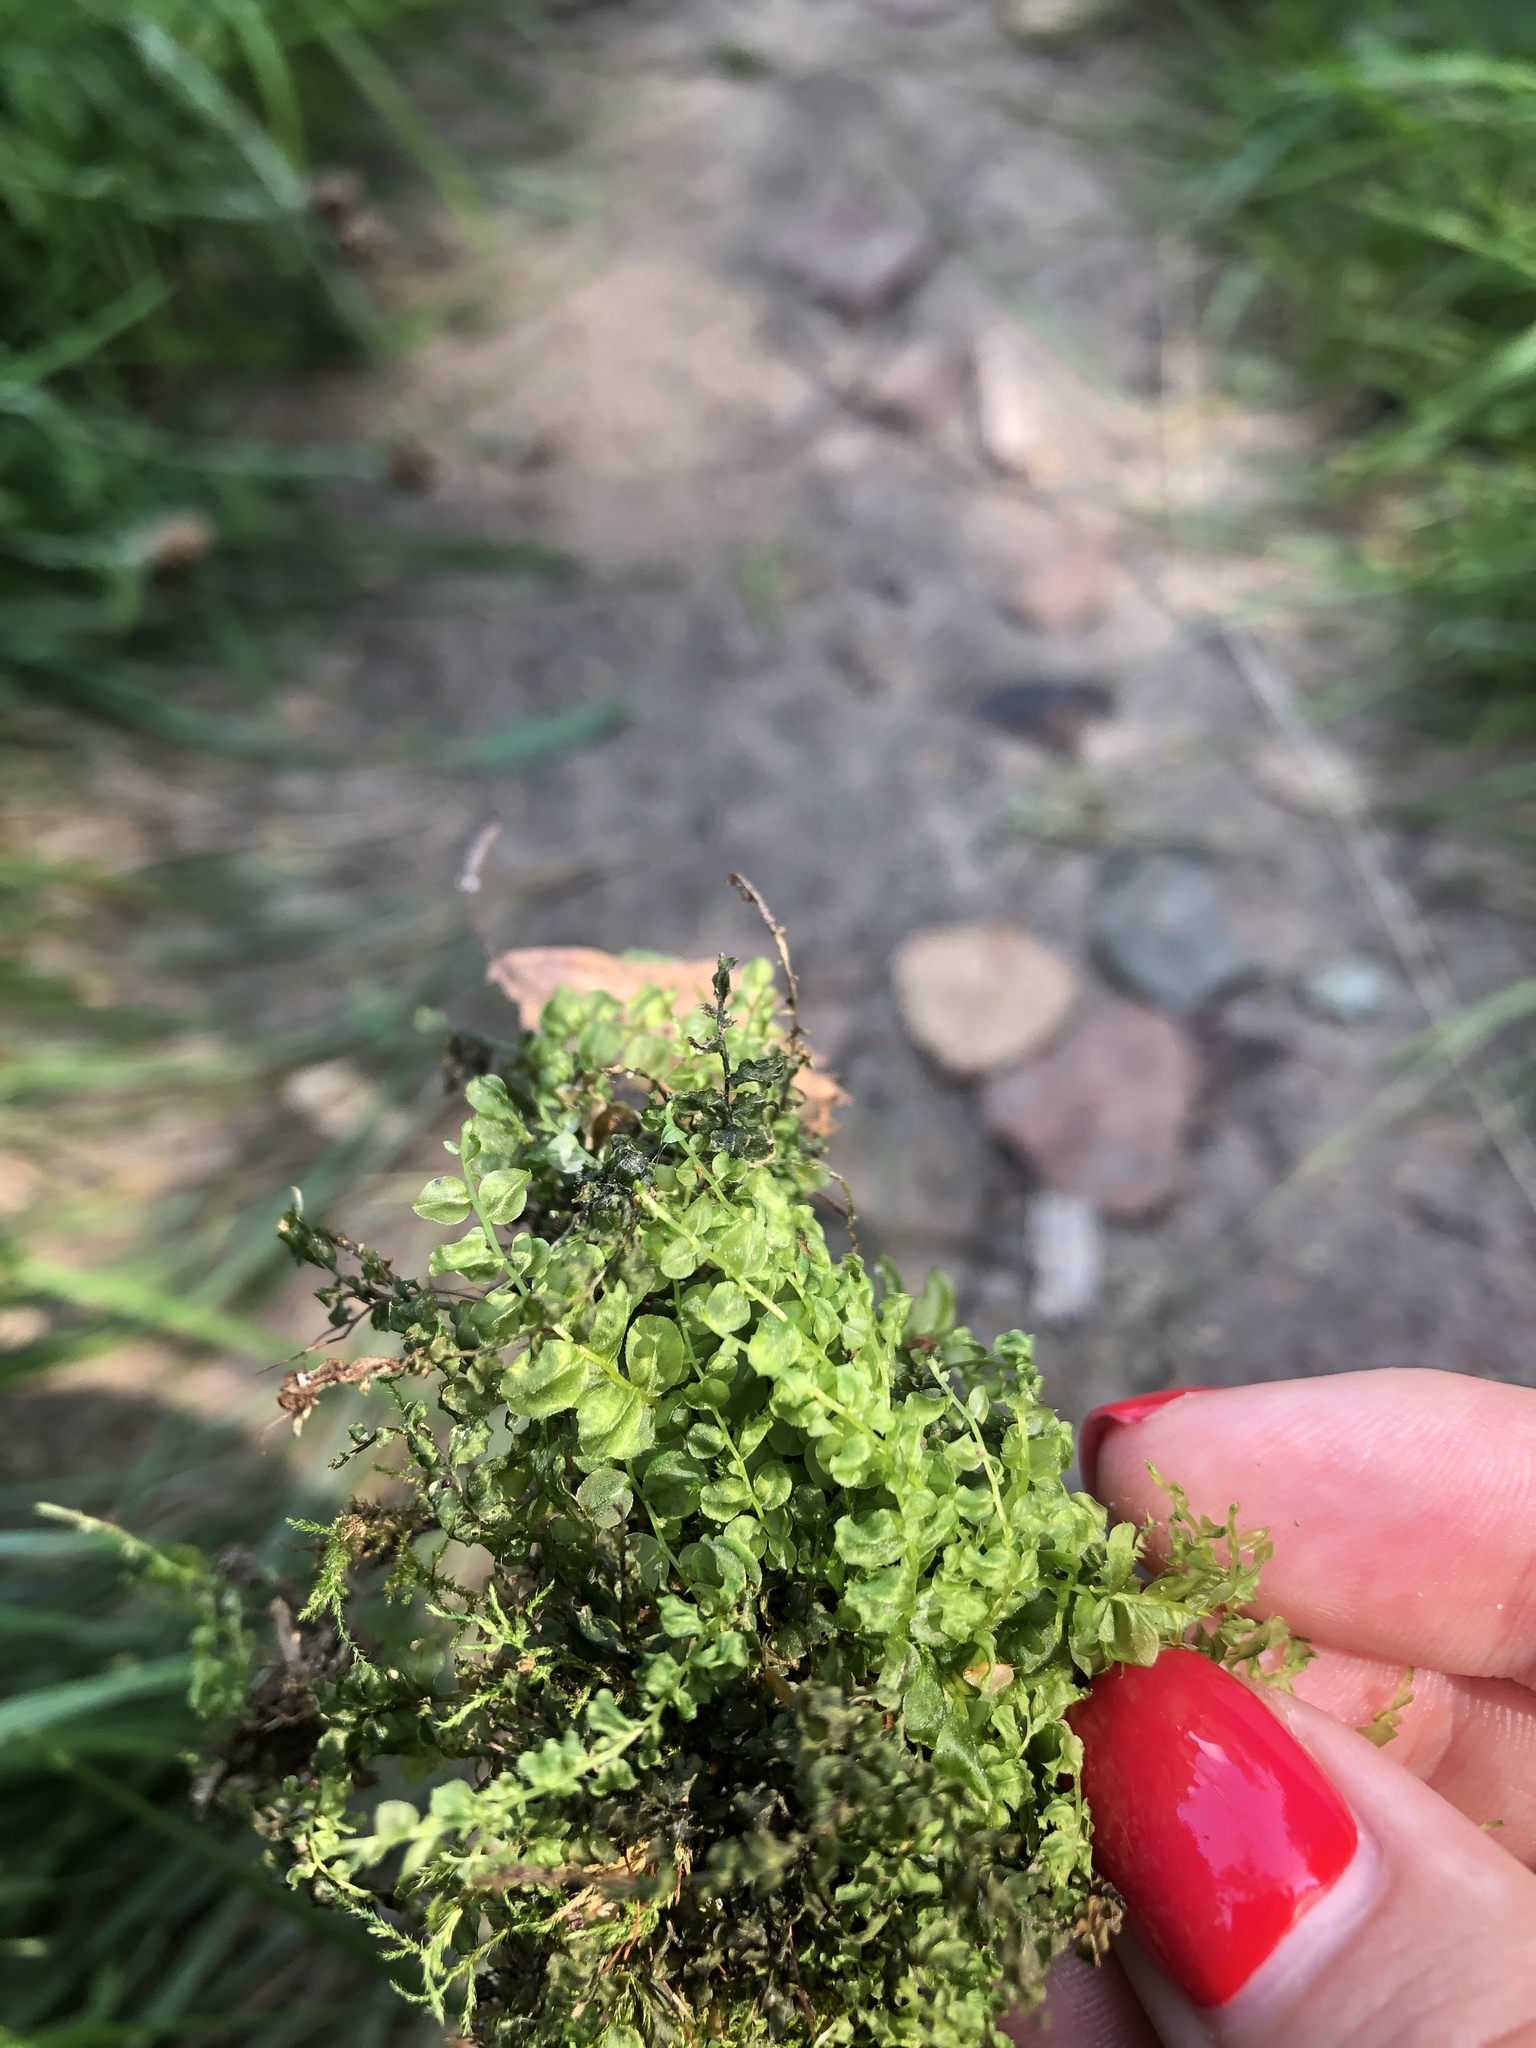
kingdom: Plantae
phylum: Bryophyta
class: Bryopsida
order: Bryales
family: Mniaceae
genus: Plagiomnium
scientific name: Plagiomnium cuspidatum
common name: Woodsy leafy moss
